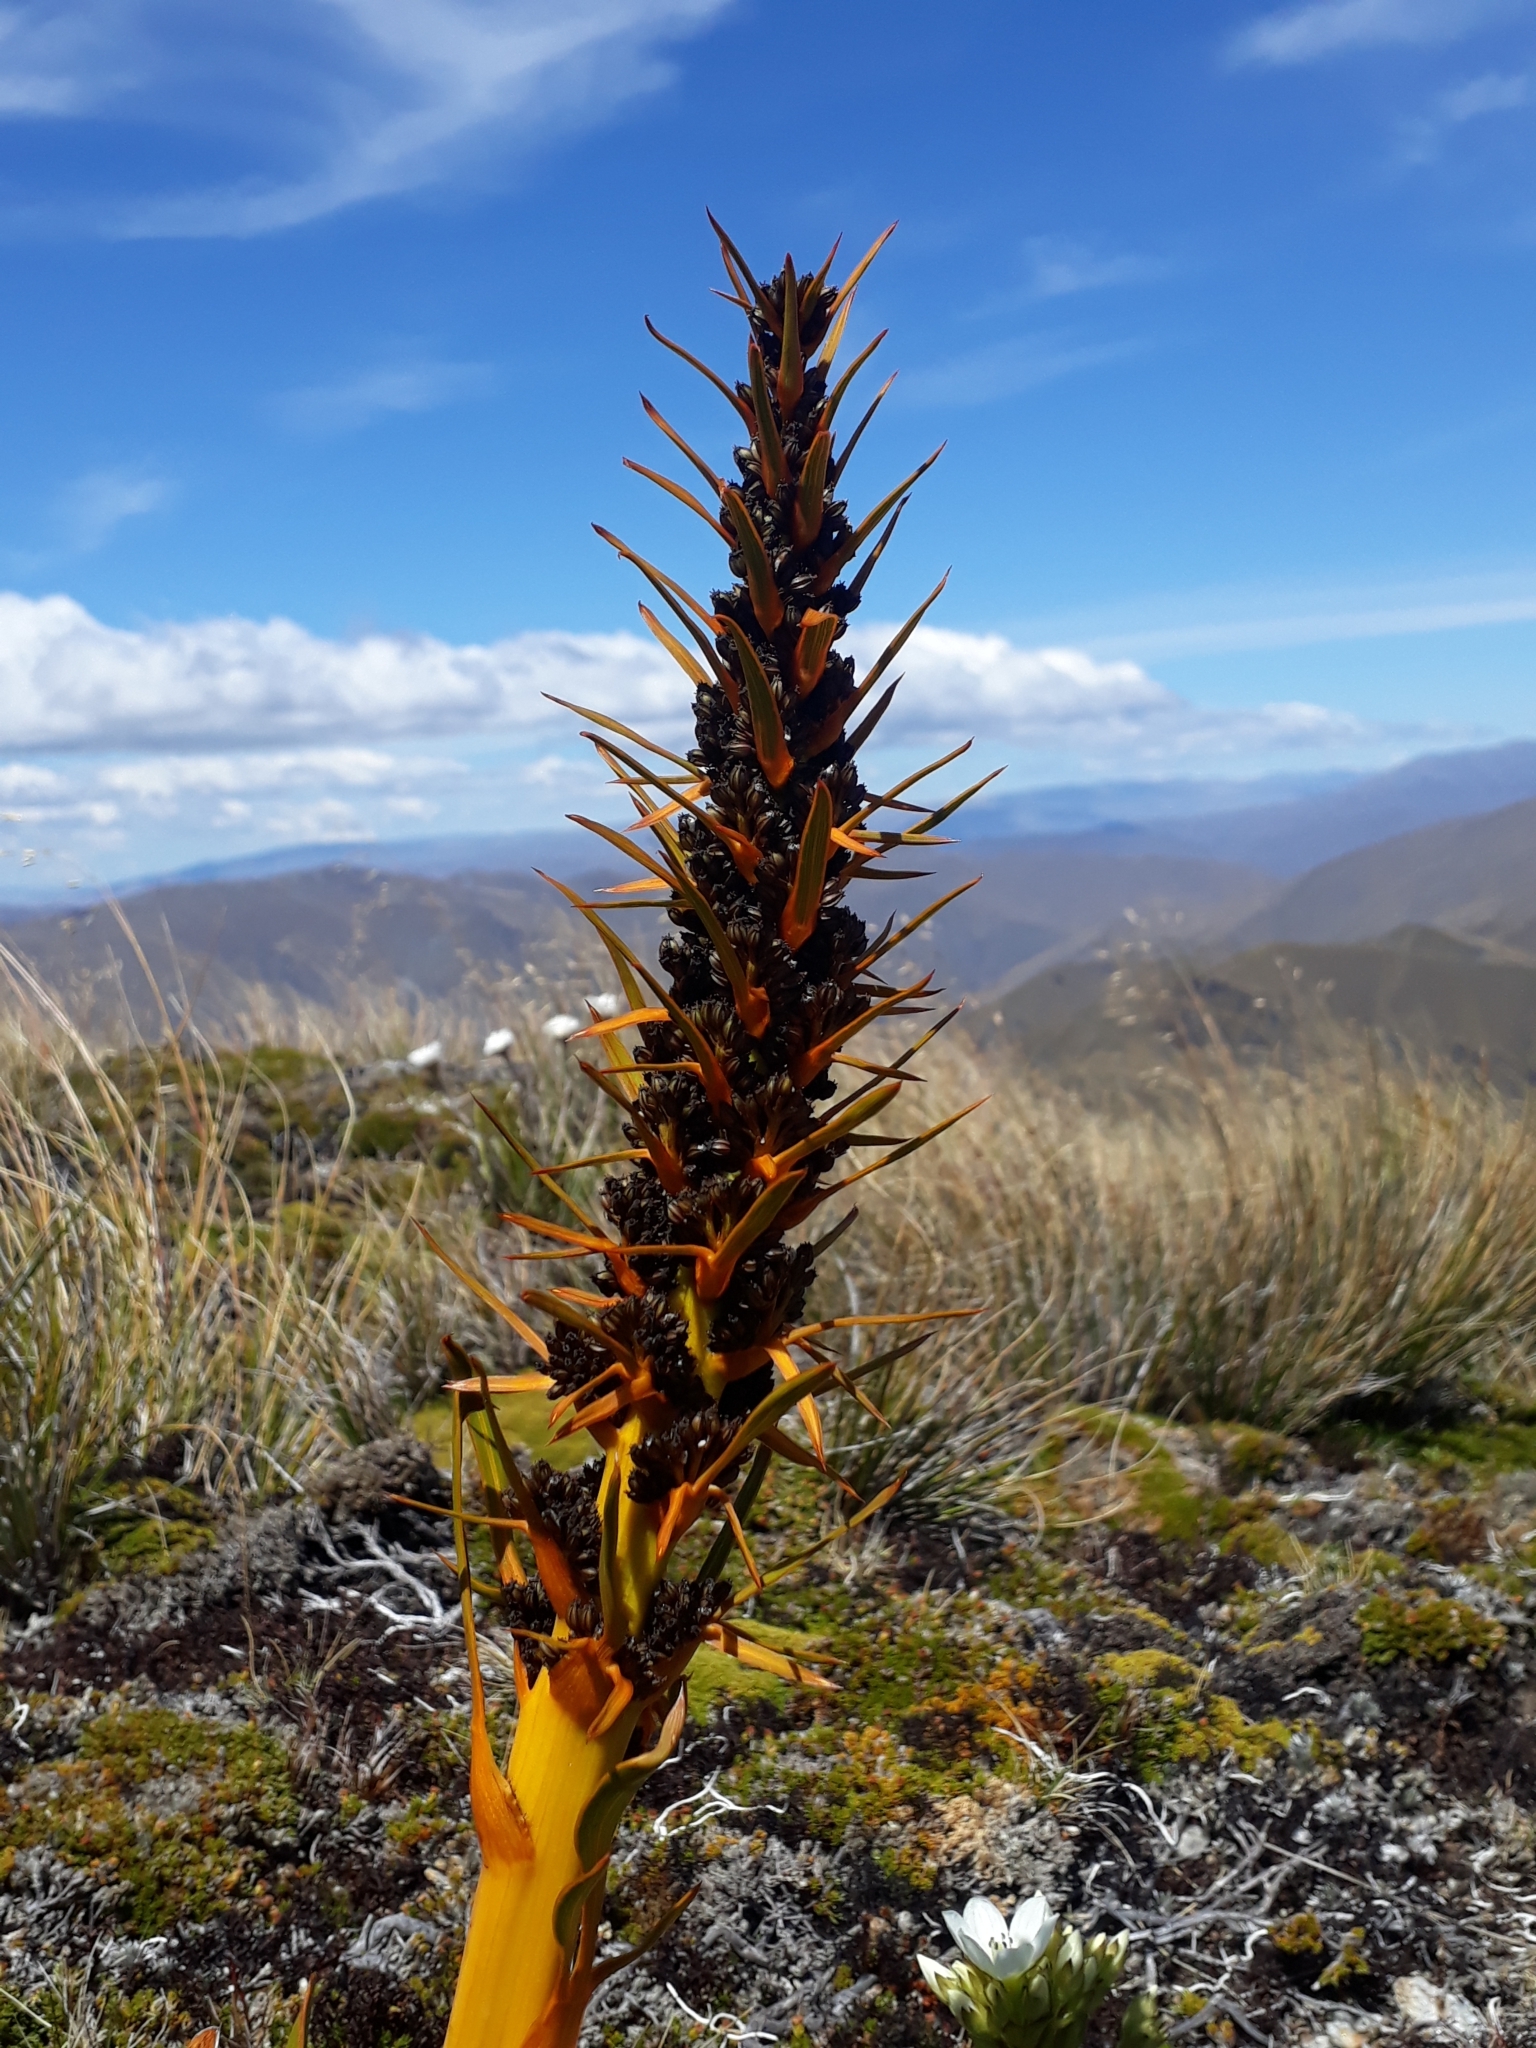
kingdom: Plantae
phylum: Tracheophyta
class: Magnoliopsida
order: Apiales
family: Apiaceae
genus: Aciphylla
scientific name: Aciphylla kirkii
